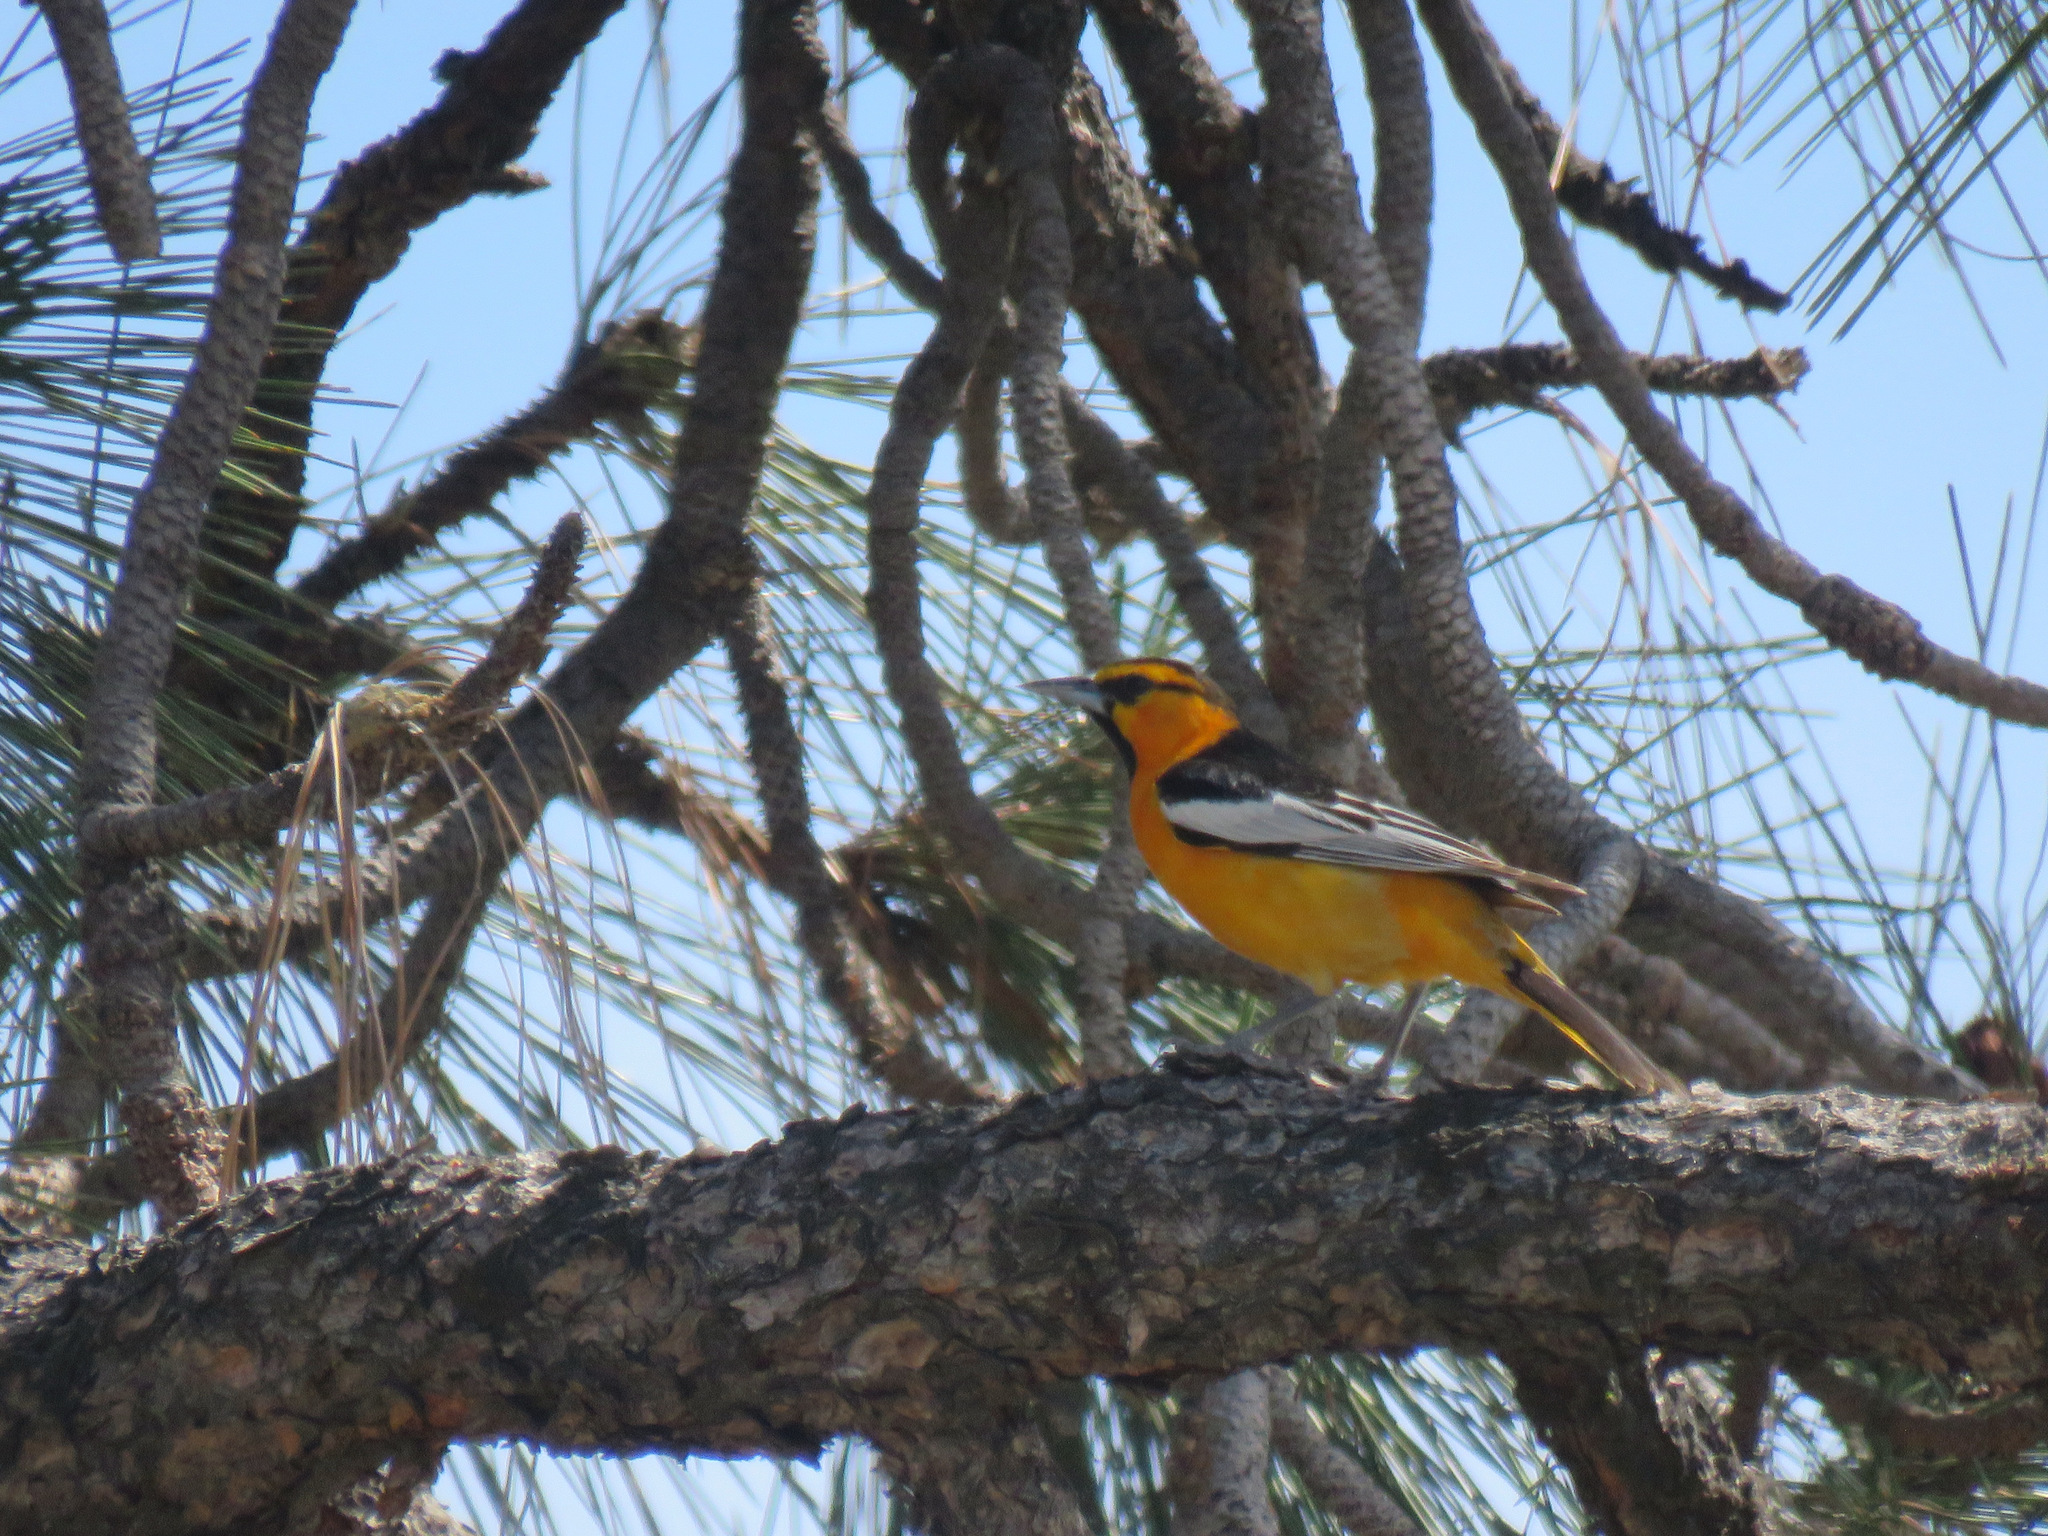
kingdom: Animalia
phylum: Chordata
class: Aves
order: Passeriformes
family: Icteridae
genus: Icterus
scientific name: Icterus bullockii
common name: Bullock's oriole
